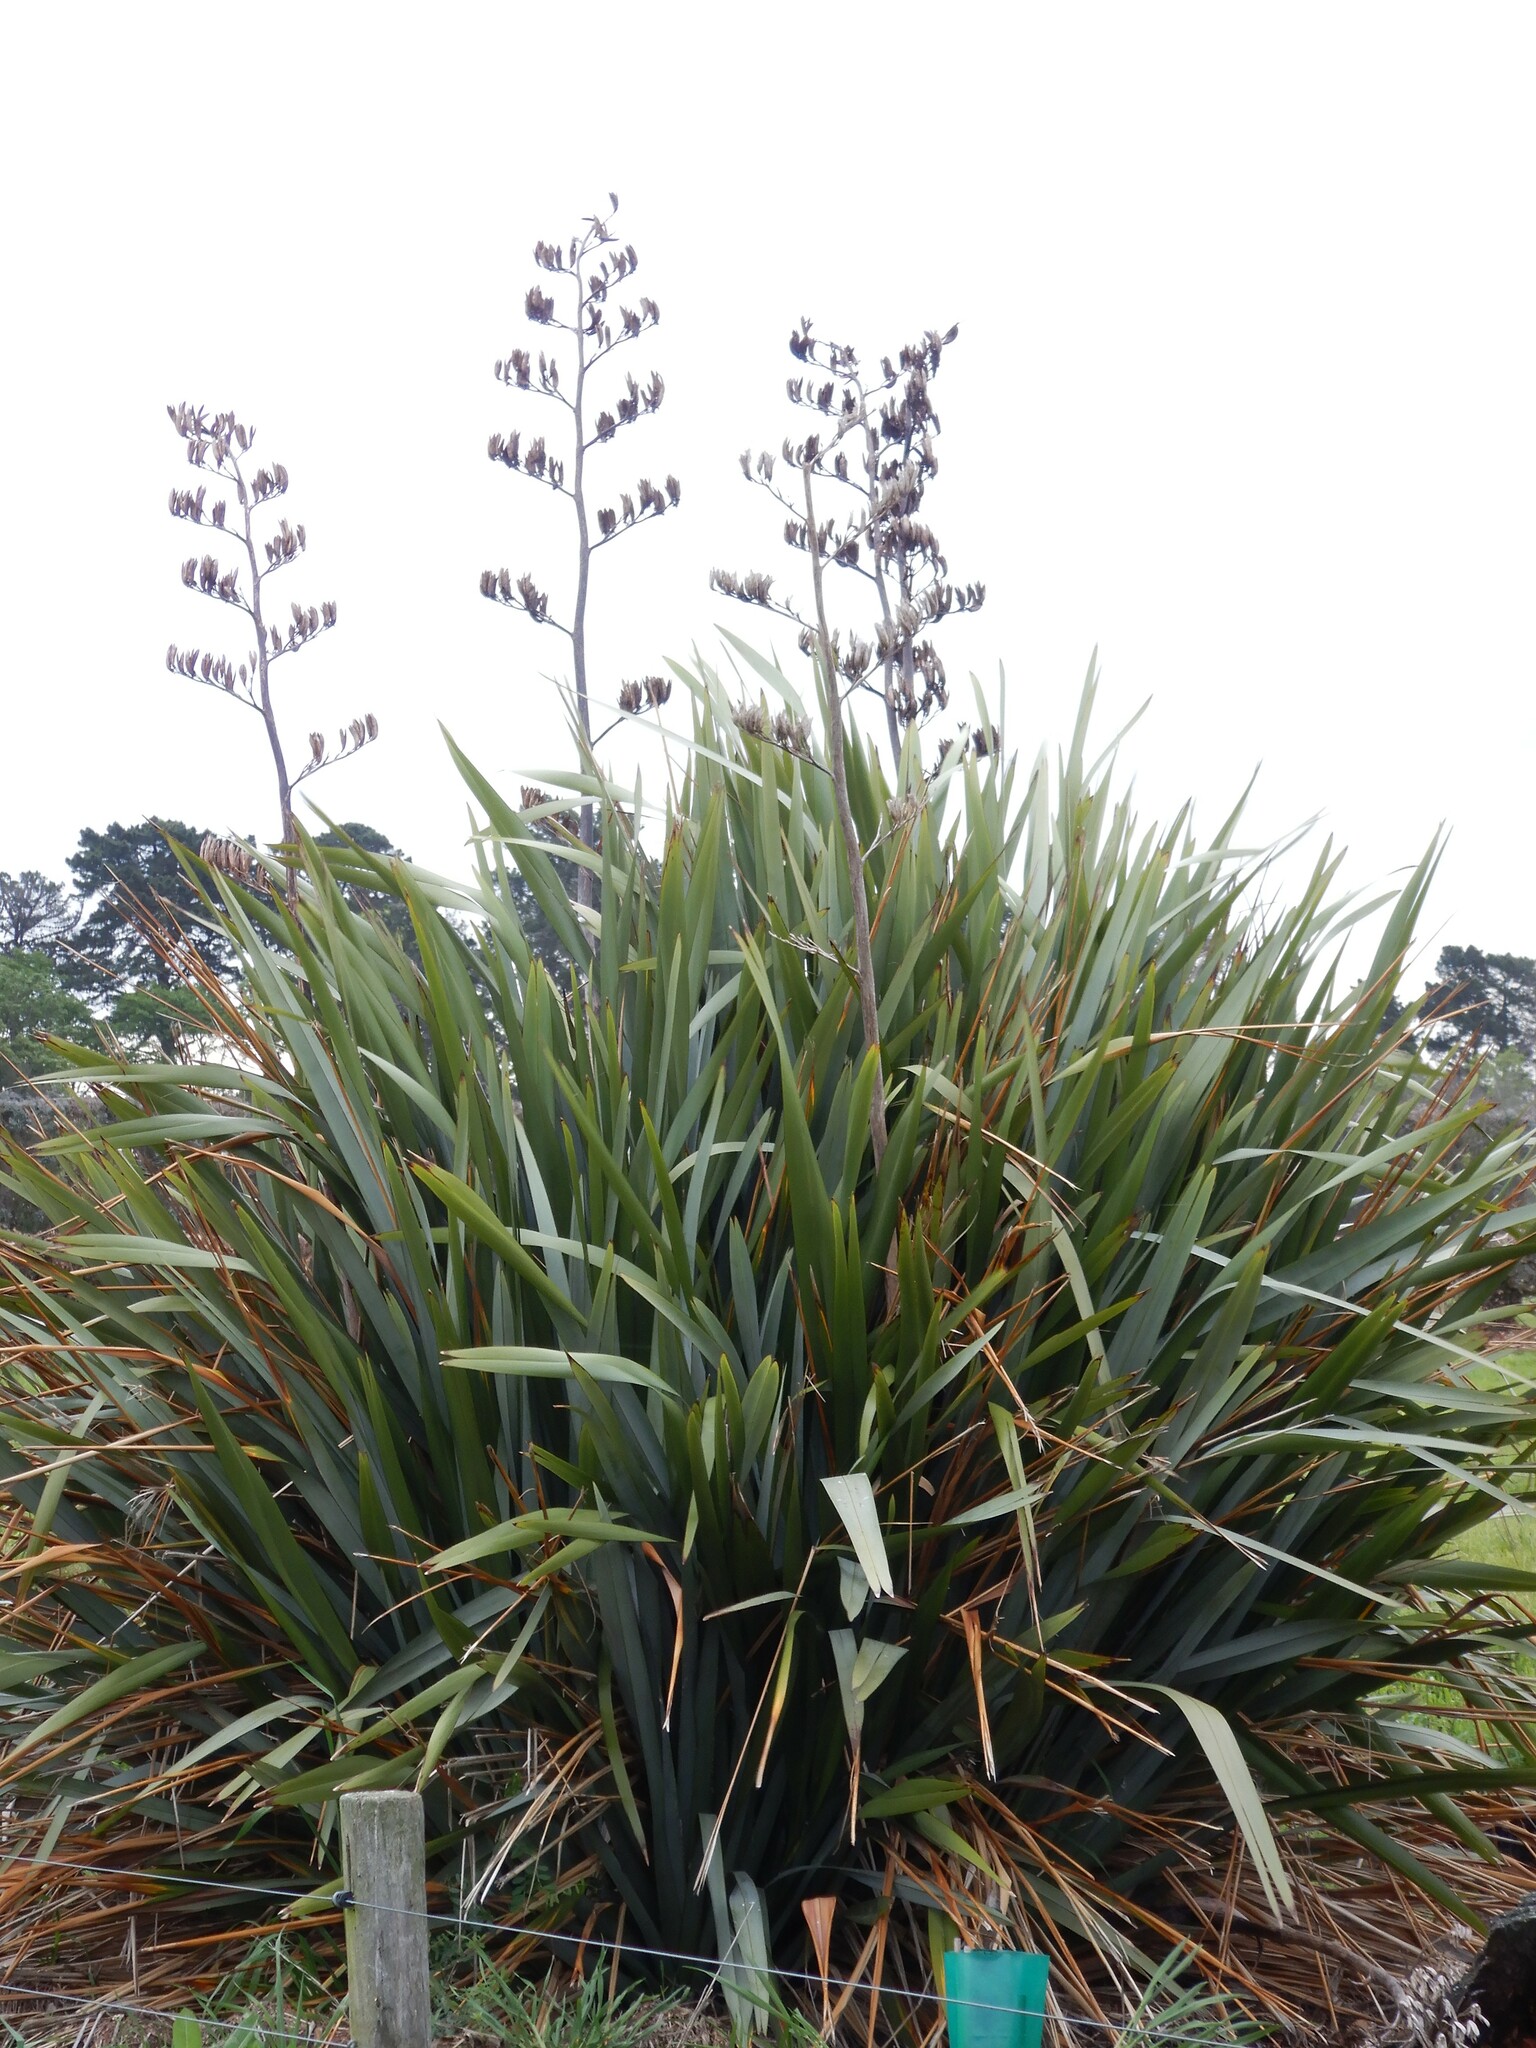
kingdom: Plantae
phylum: Tracheophyta
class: Liliopsida
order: Asparagales
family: Asphodelaceae
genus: Phormium
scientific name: Phormium tenax
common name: New zealand flax
